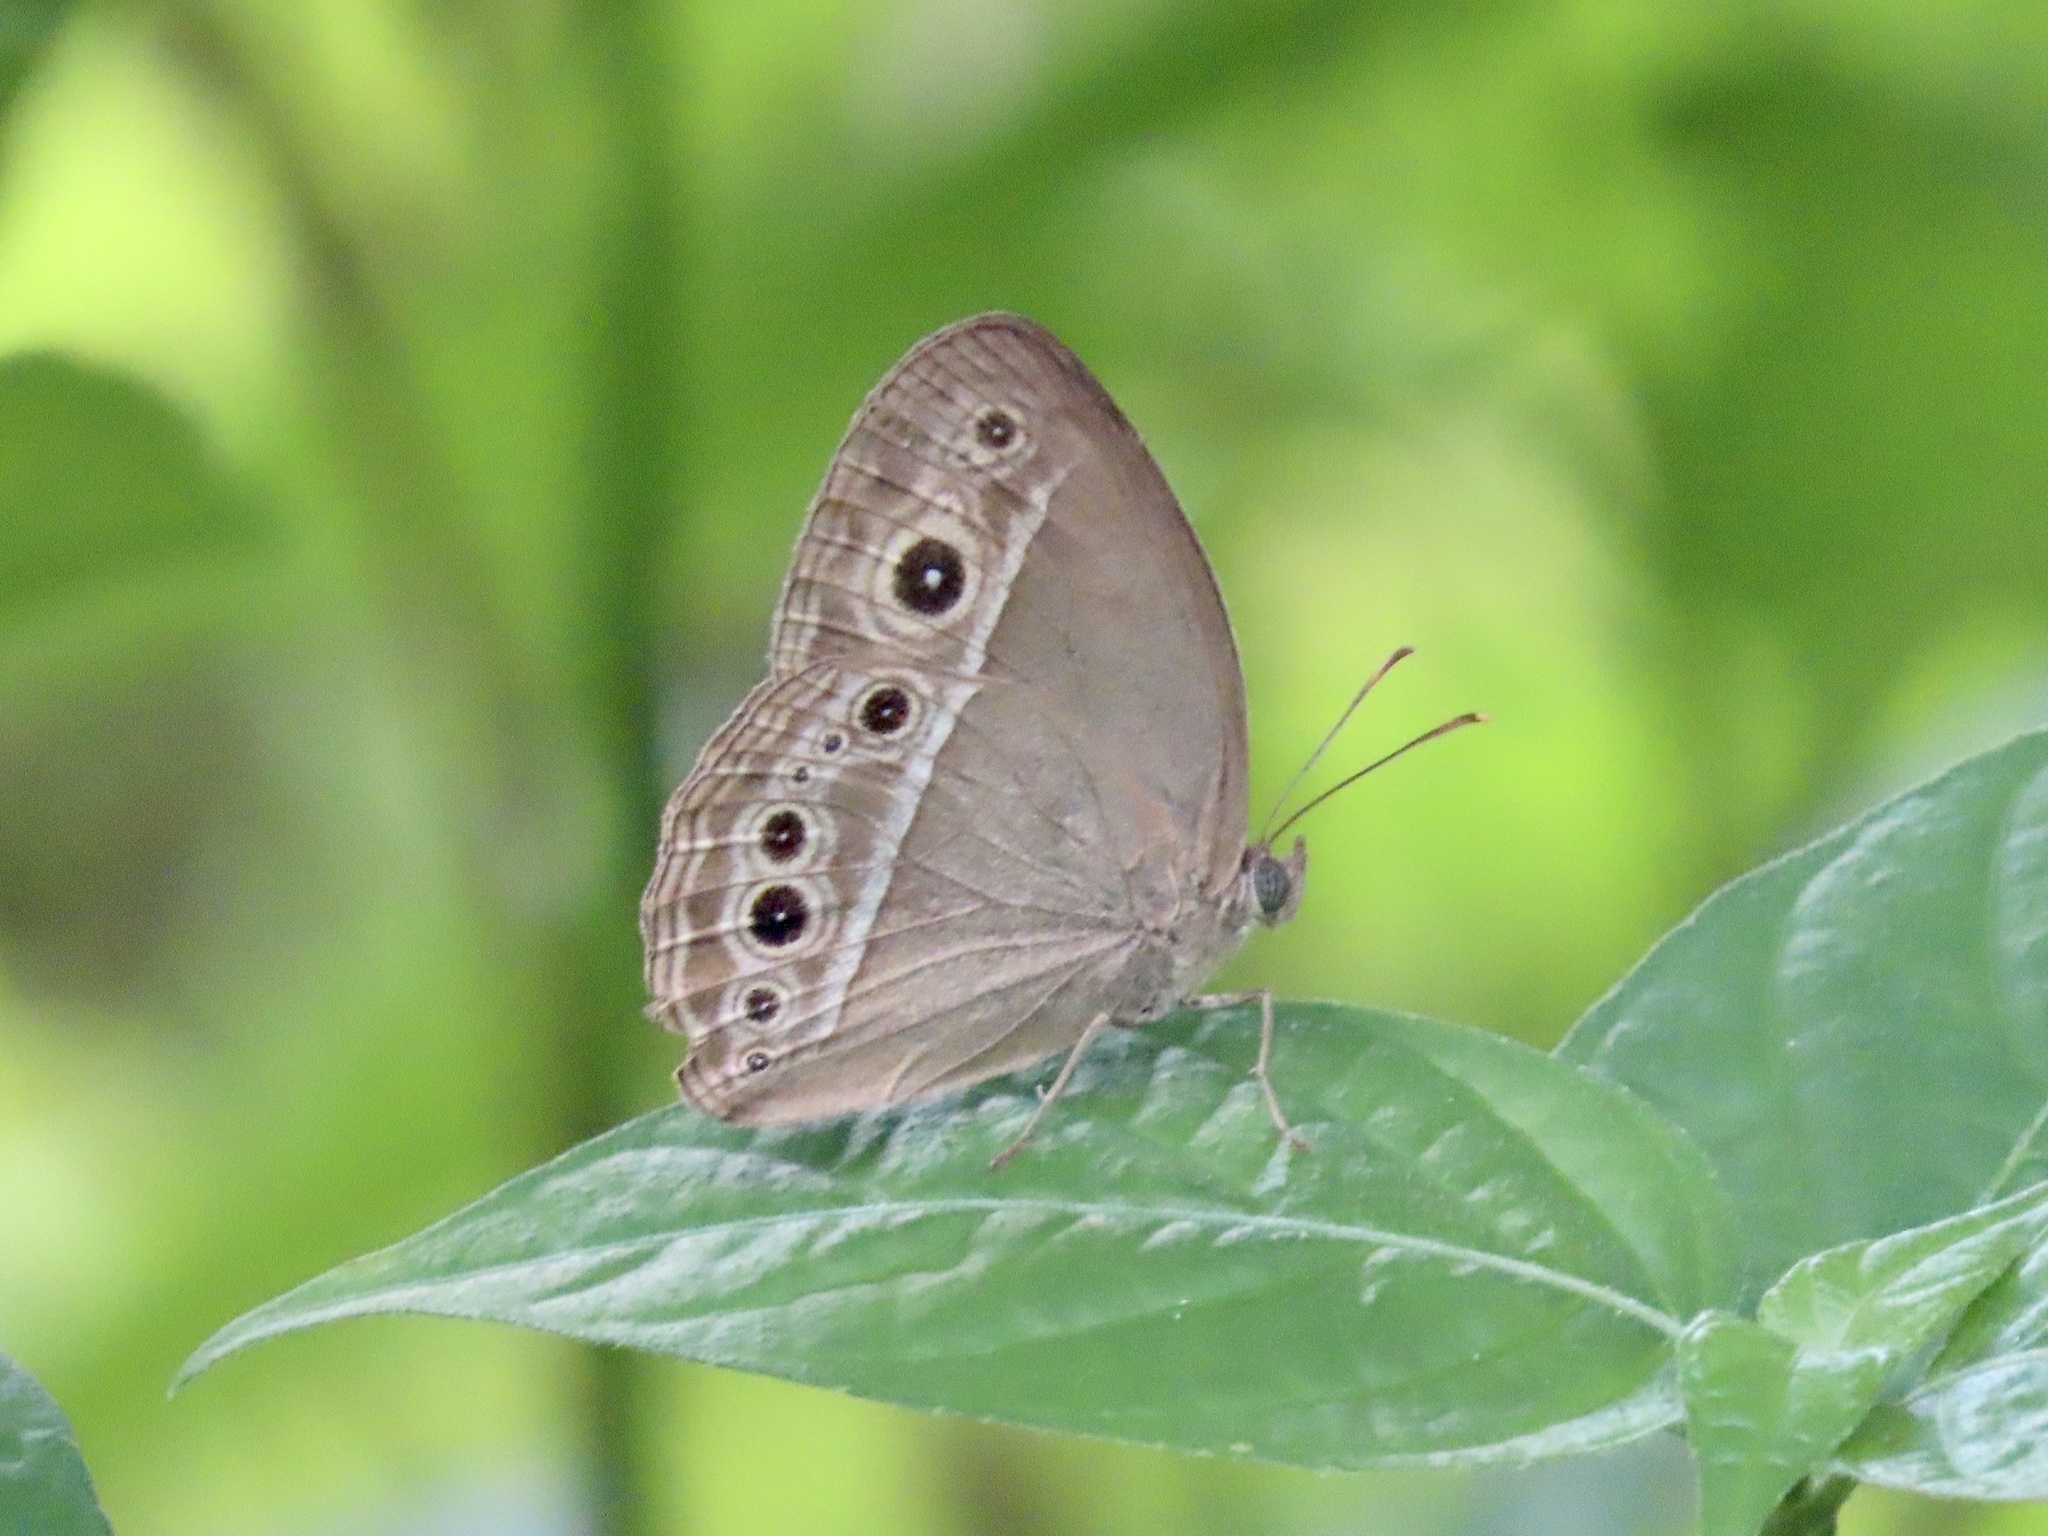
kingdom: Animalia
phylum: Arthropoda
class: Insecta
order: Lepidoptera
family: Nymphalidae
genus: Mycalesis
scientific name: Mycalesis mineus
